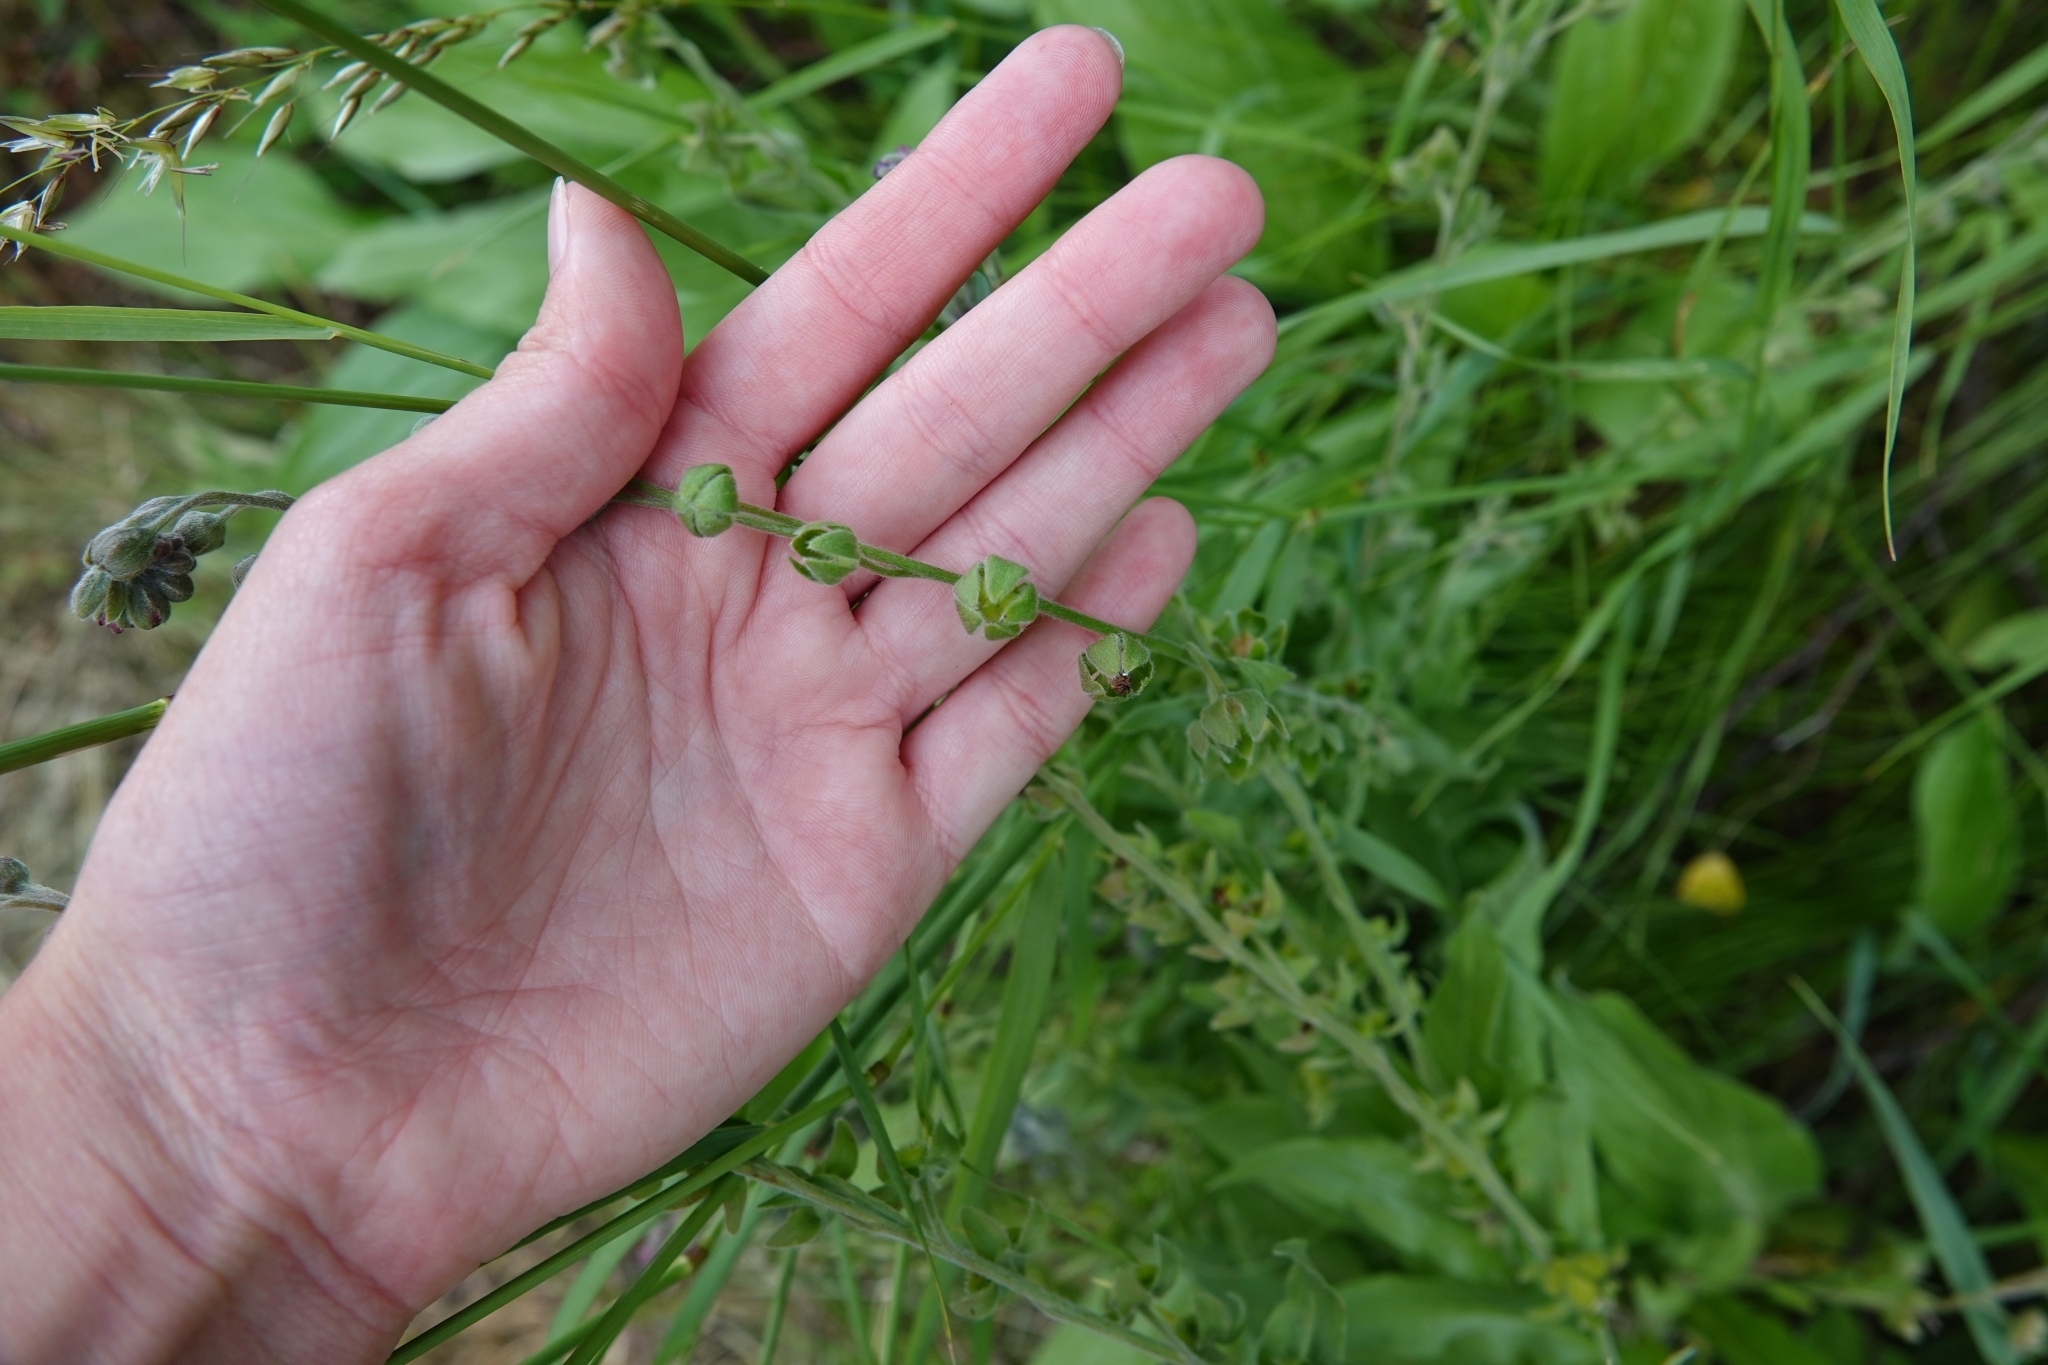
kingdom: Plantae
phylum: Tracheophyta
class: Magnoliopsida
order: Boraginales
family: Boraginaceae
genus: Cynoglossum
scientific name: Cynoglossum officinale
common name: Hound's-tongue
